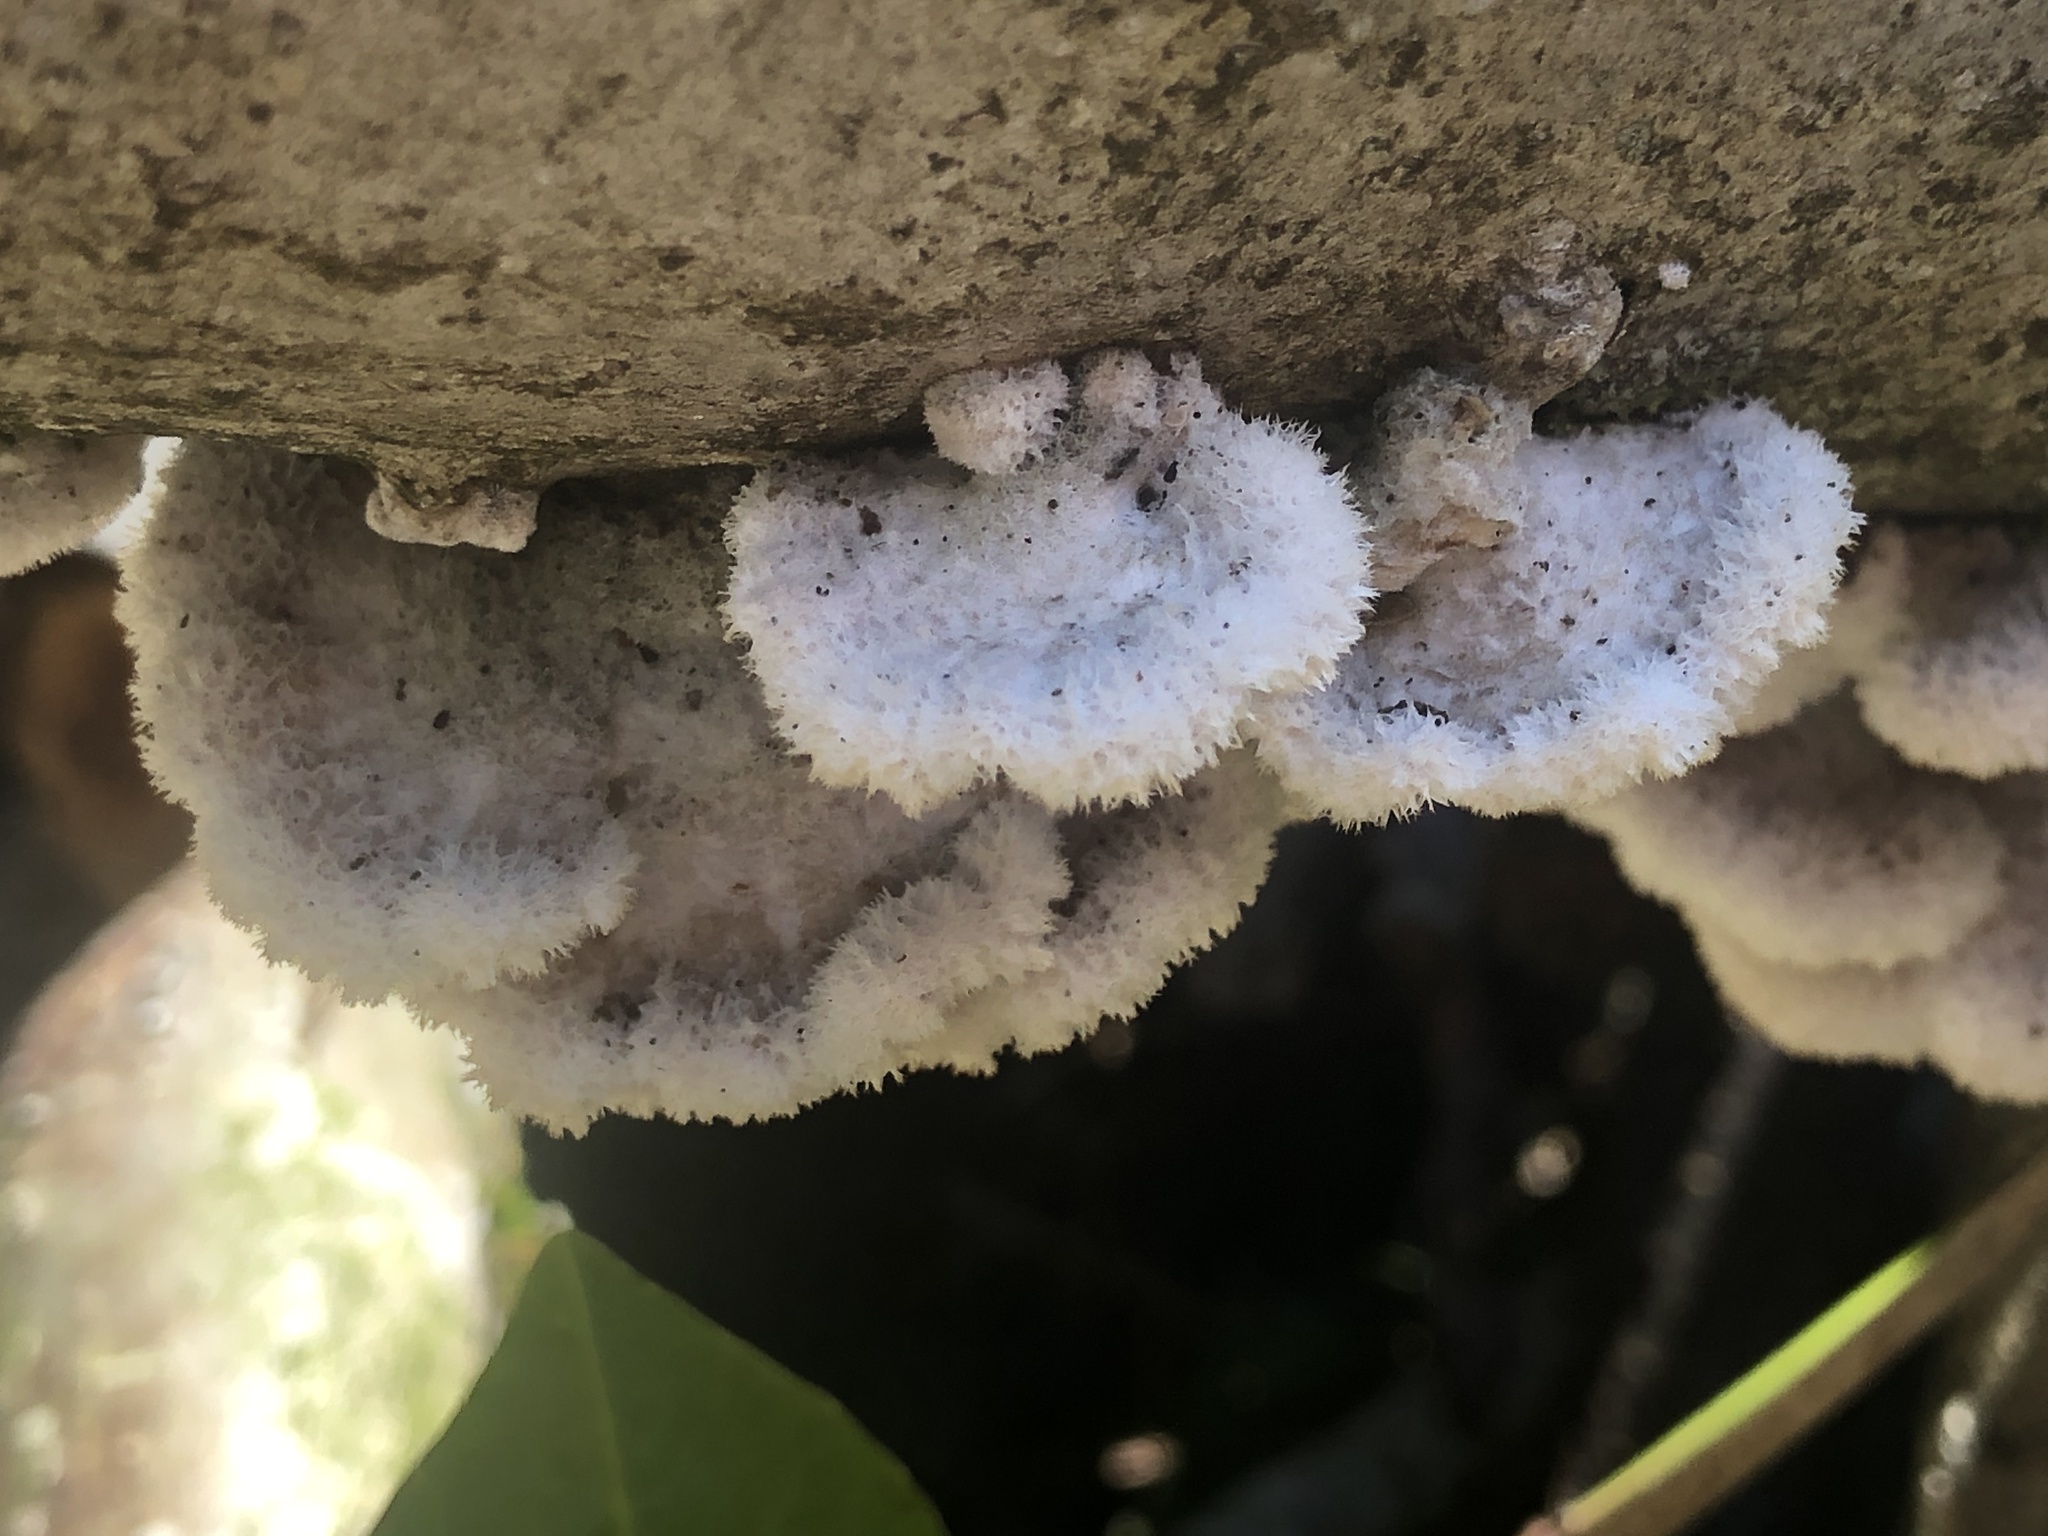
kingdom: Fungi
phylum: Basidiomycota
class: Agaricomycetes
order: Agaricales
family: Schizophyllaceae
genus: Schizophyllum
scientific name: Schizophyllum commune
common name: Common porecrust
